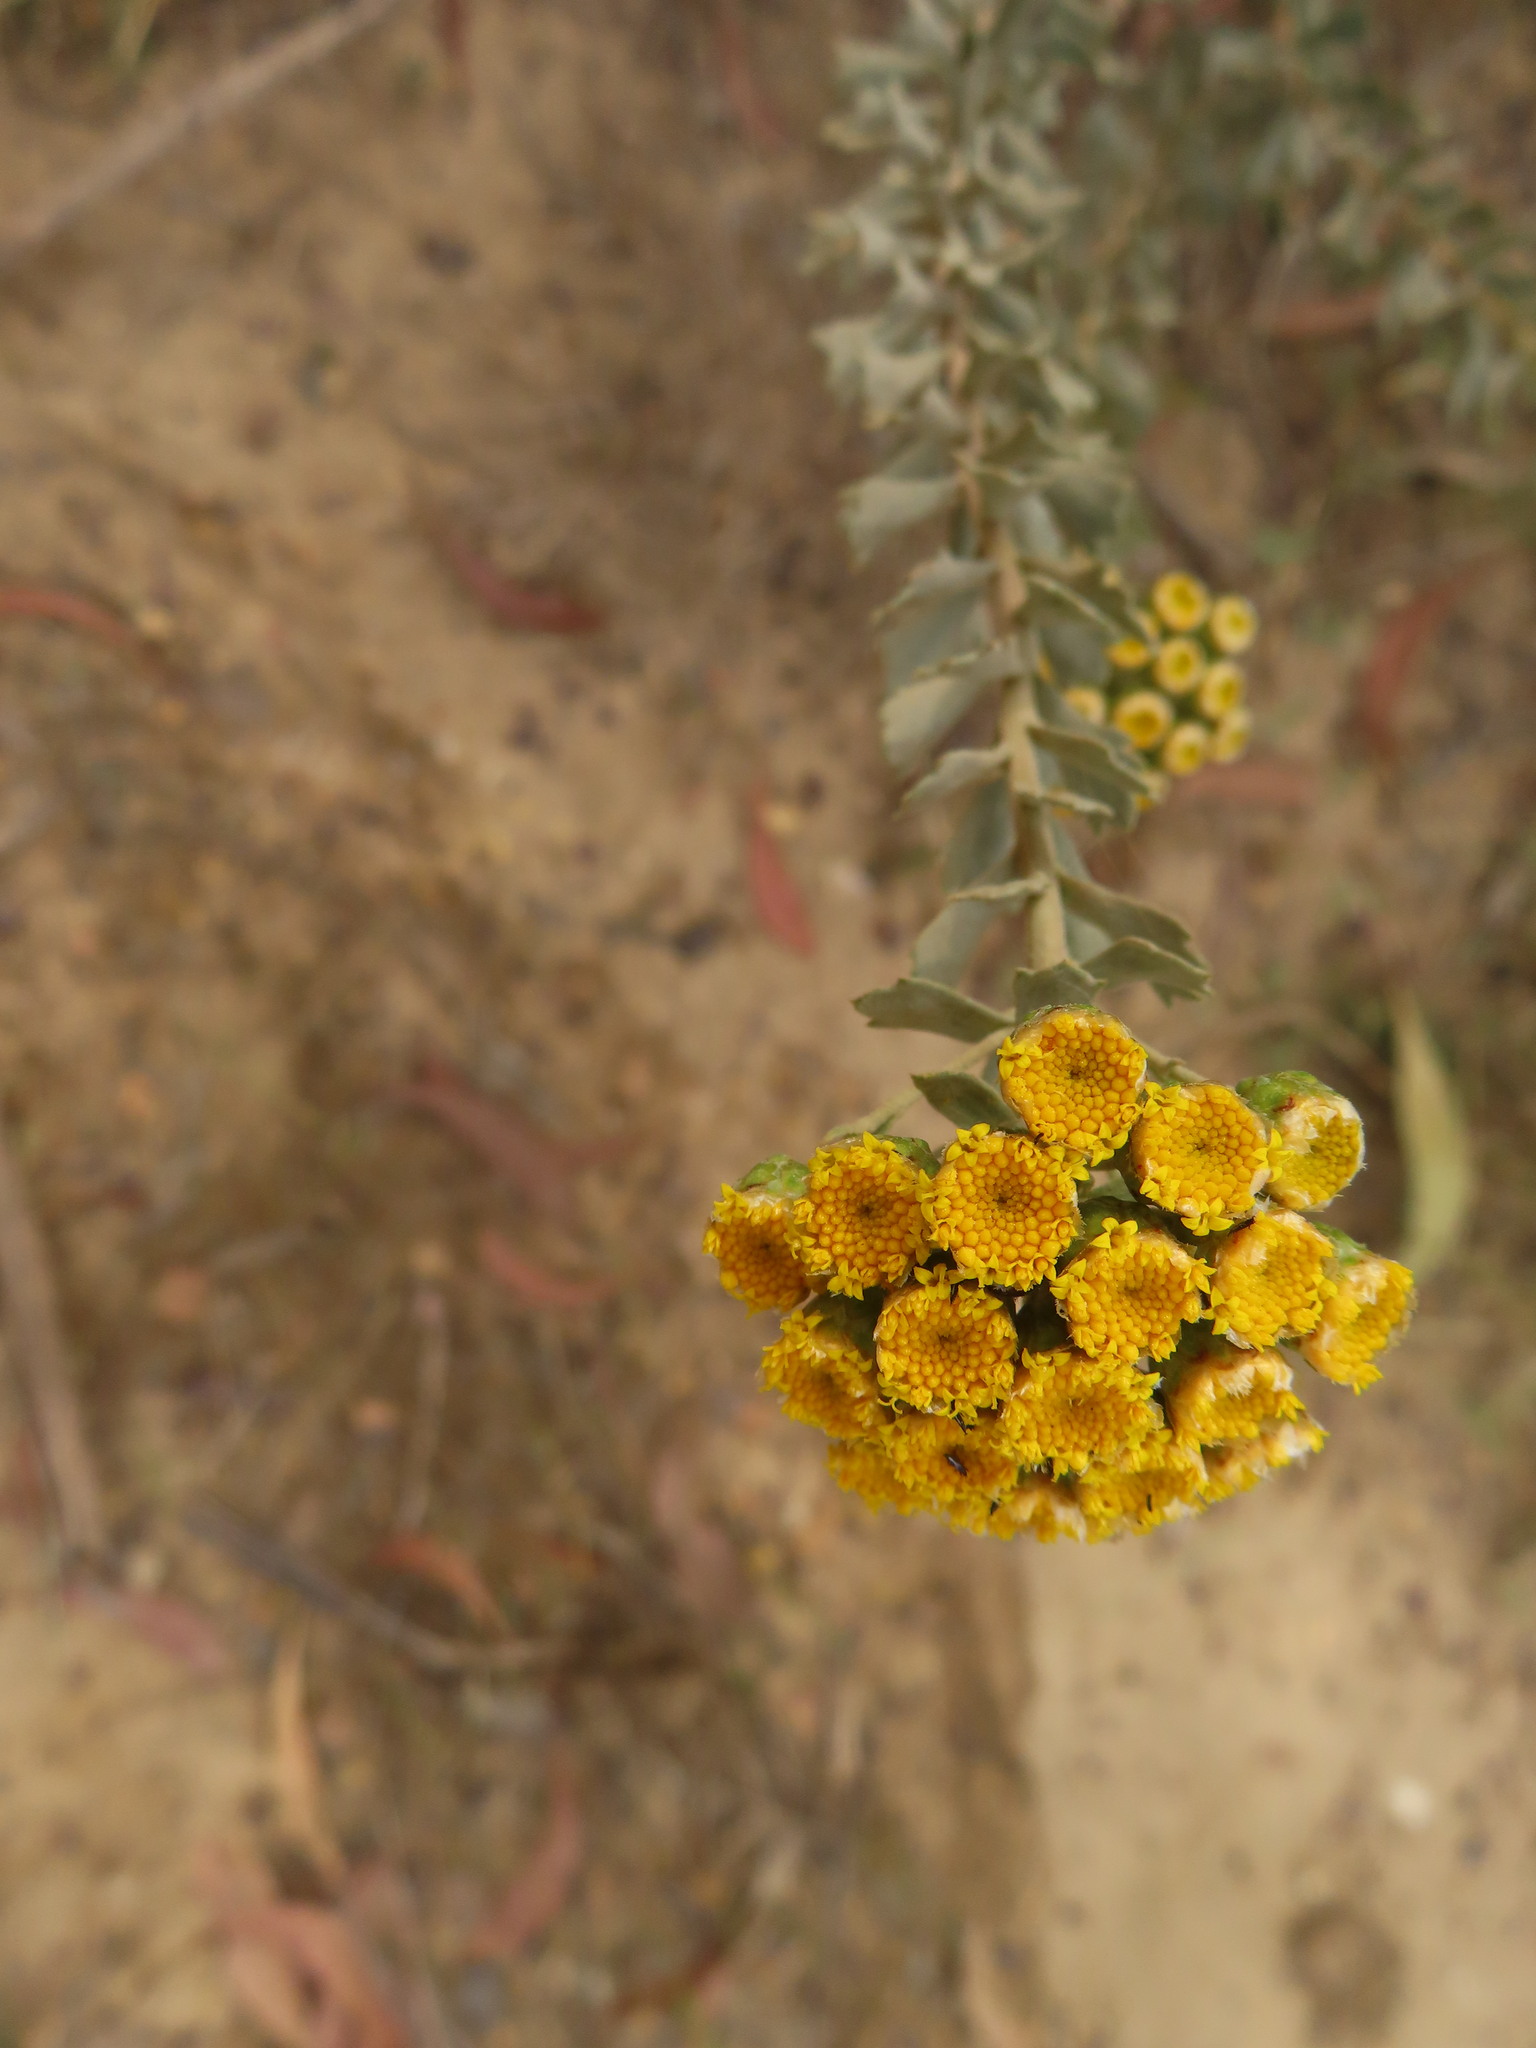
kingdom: Plantae
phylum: Tracheophyta
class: Magnoliopsida
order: Asterales
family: Asteraceae
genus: Athanasia
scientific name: Athanasia trifurcata
